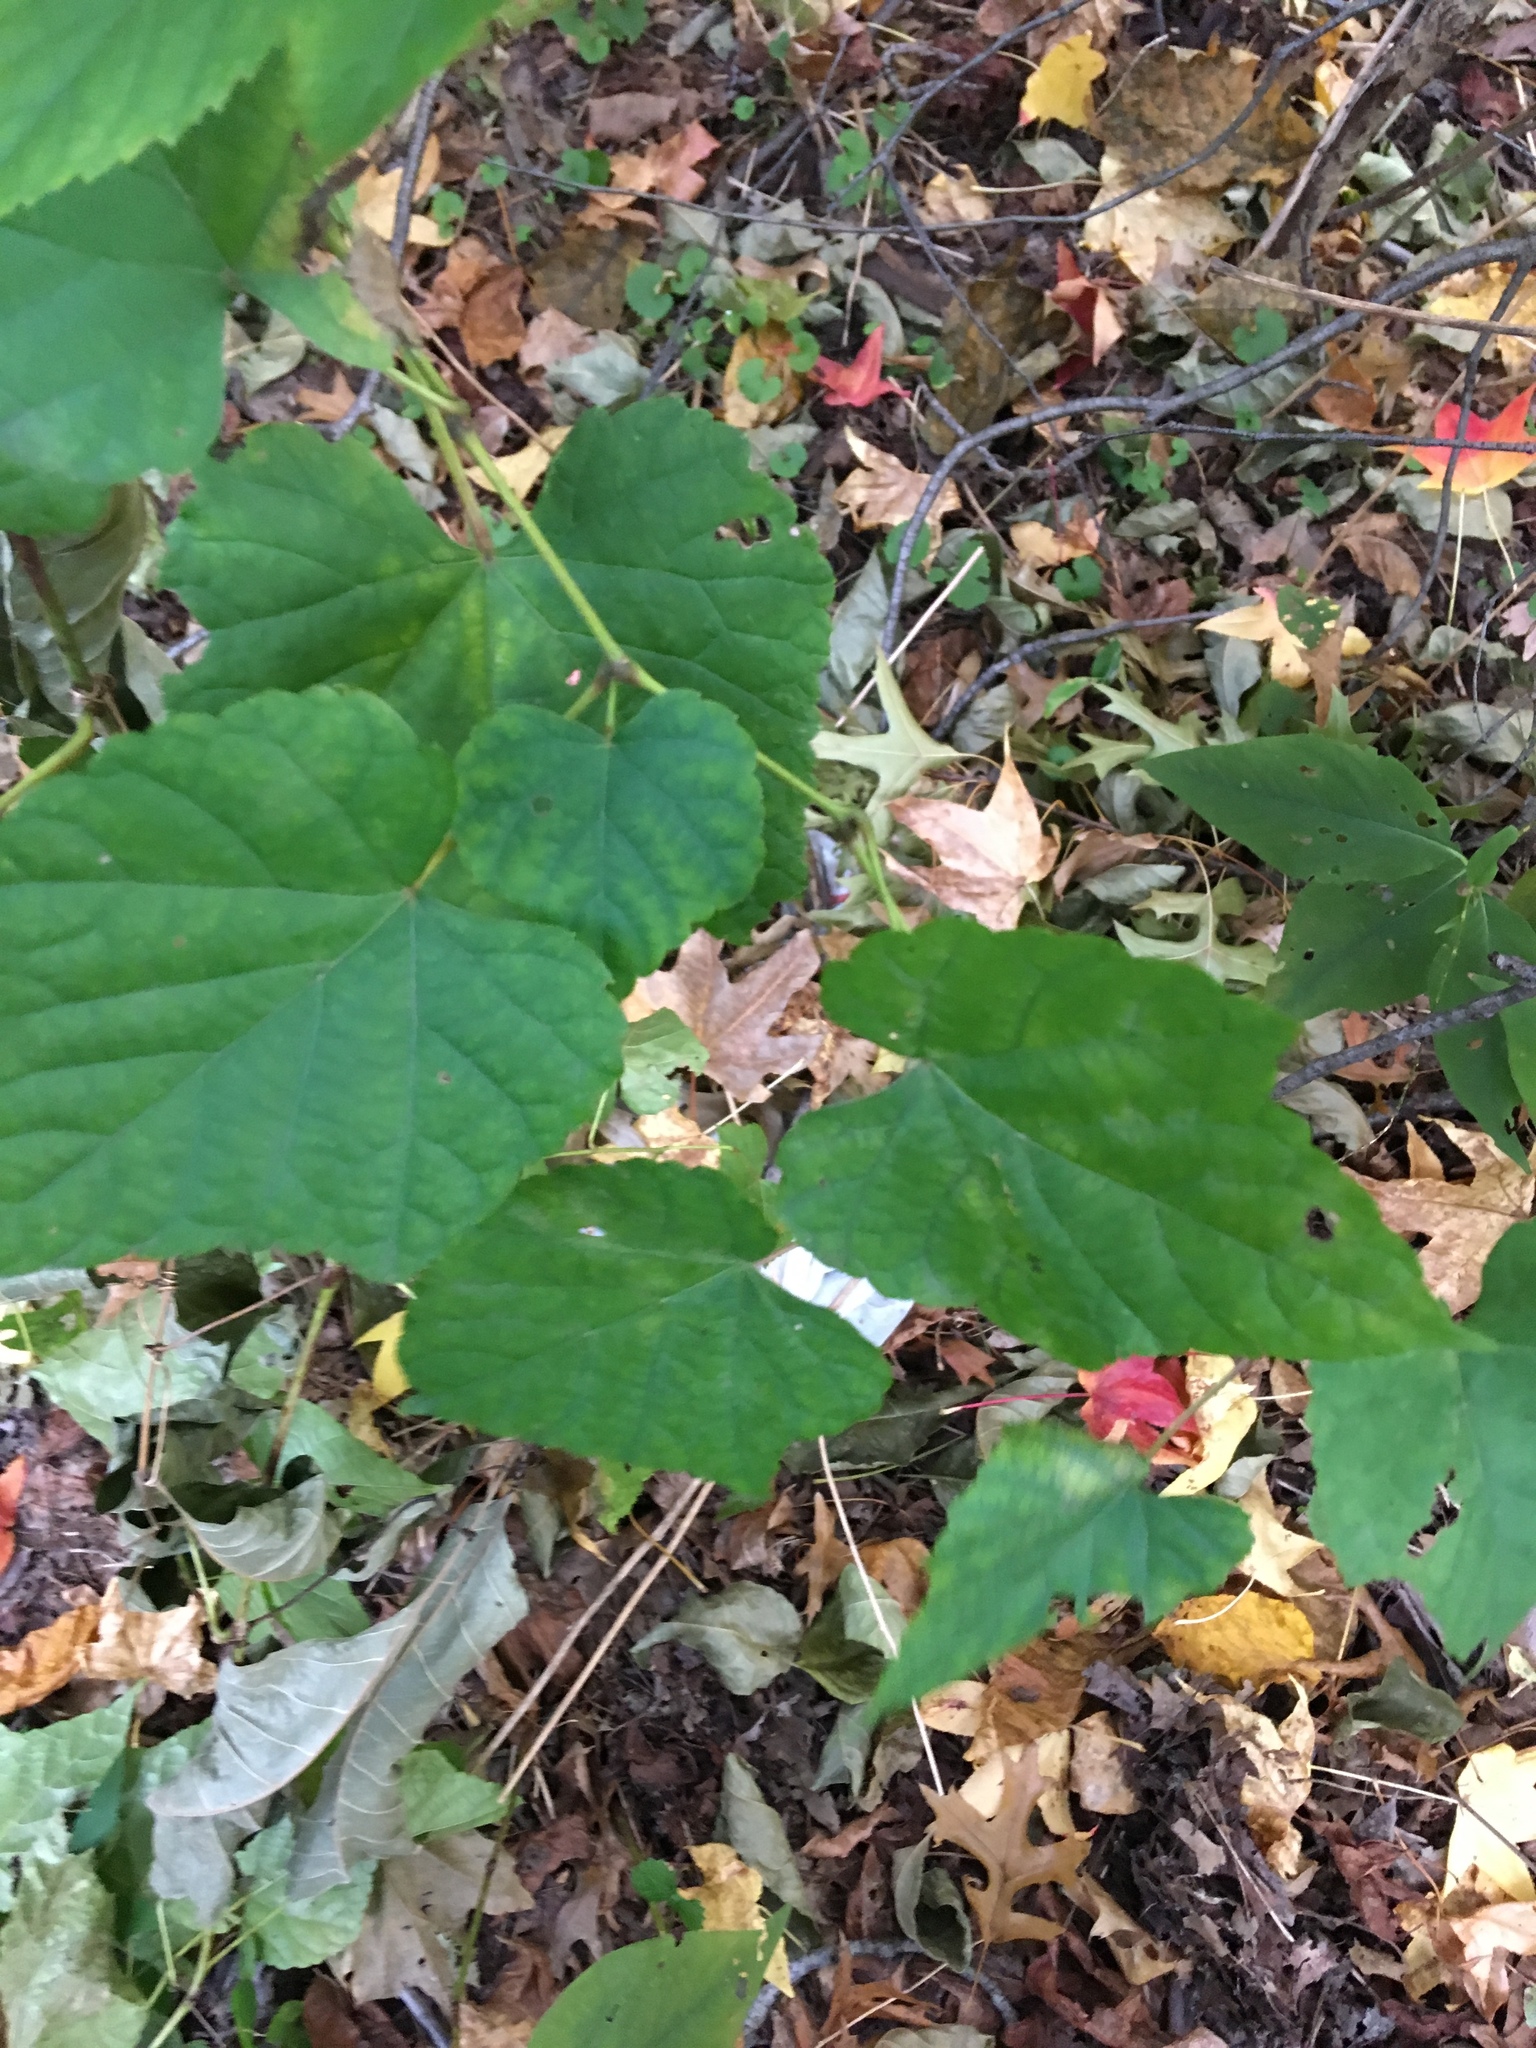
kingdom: Plantae
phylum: Tracheophyta
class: Magnoliopsida
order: Vitales
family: Vitaceae
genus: Ampelopsis
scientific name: Ampelopsis glandulosa
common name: Amur peppervine
